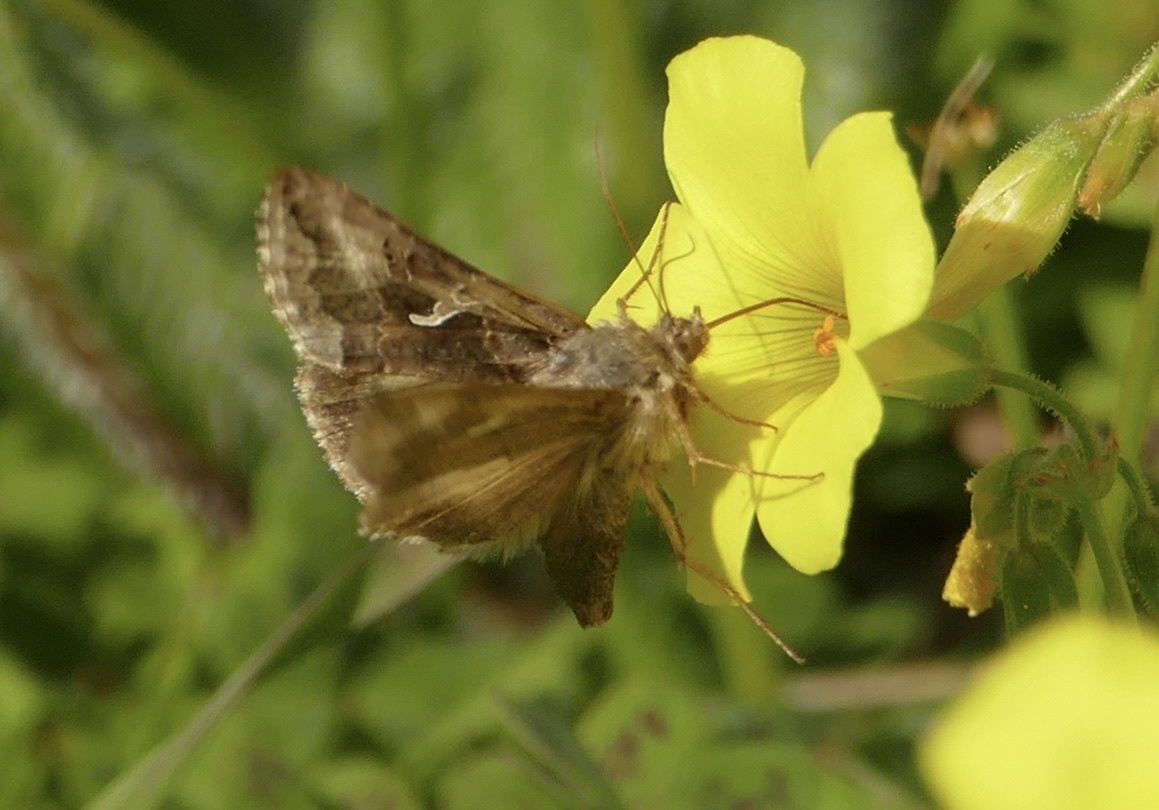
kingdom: Animalia
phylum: Arthropoda
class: Insecta
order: Lepidoptera
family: Noctuidae
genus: Autographa
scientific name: Autographa gamma
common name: Silver y
